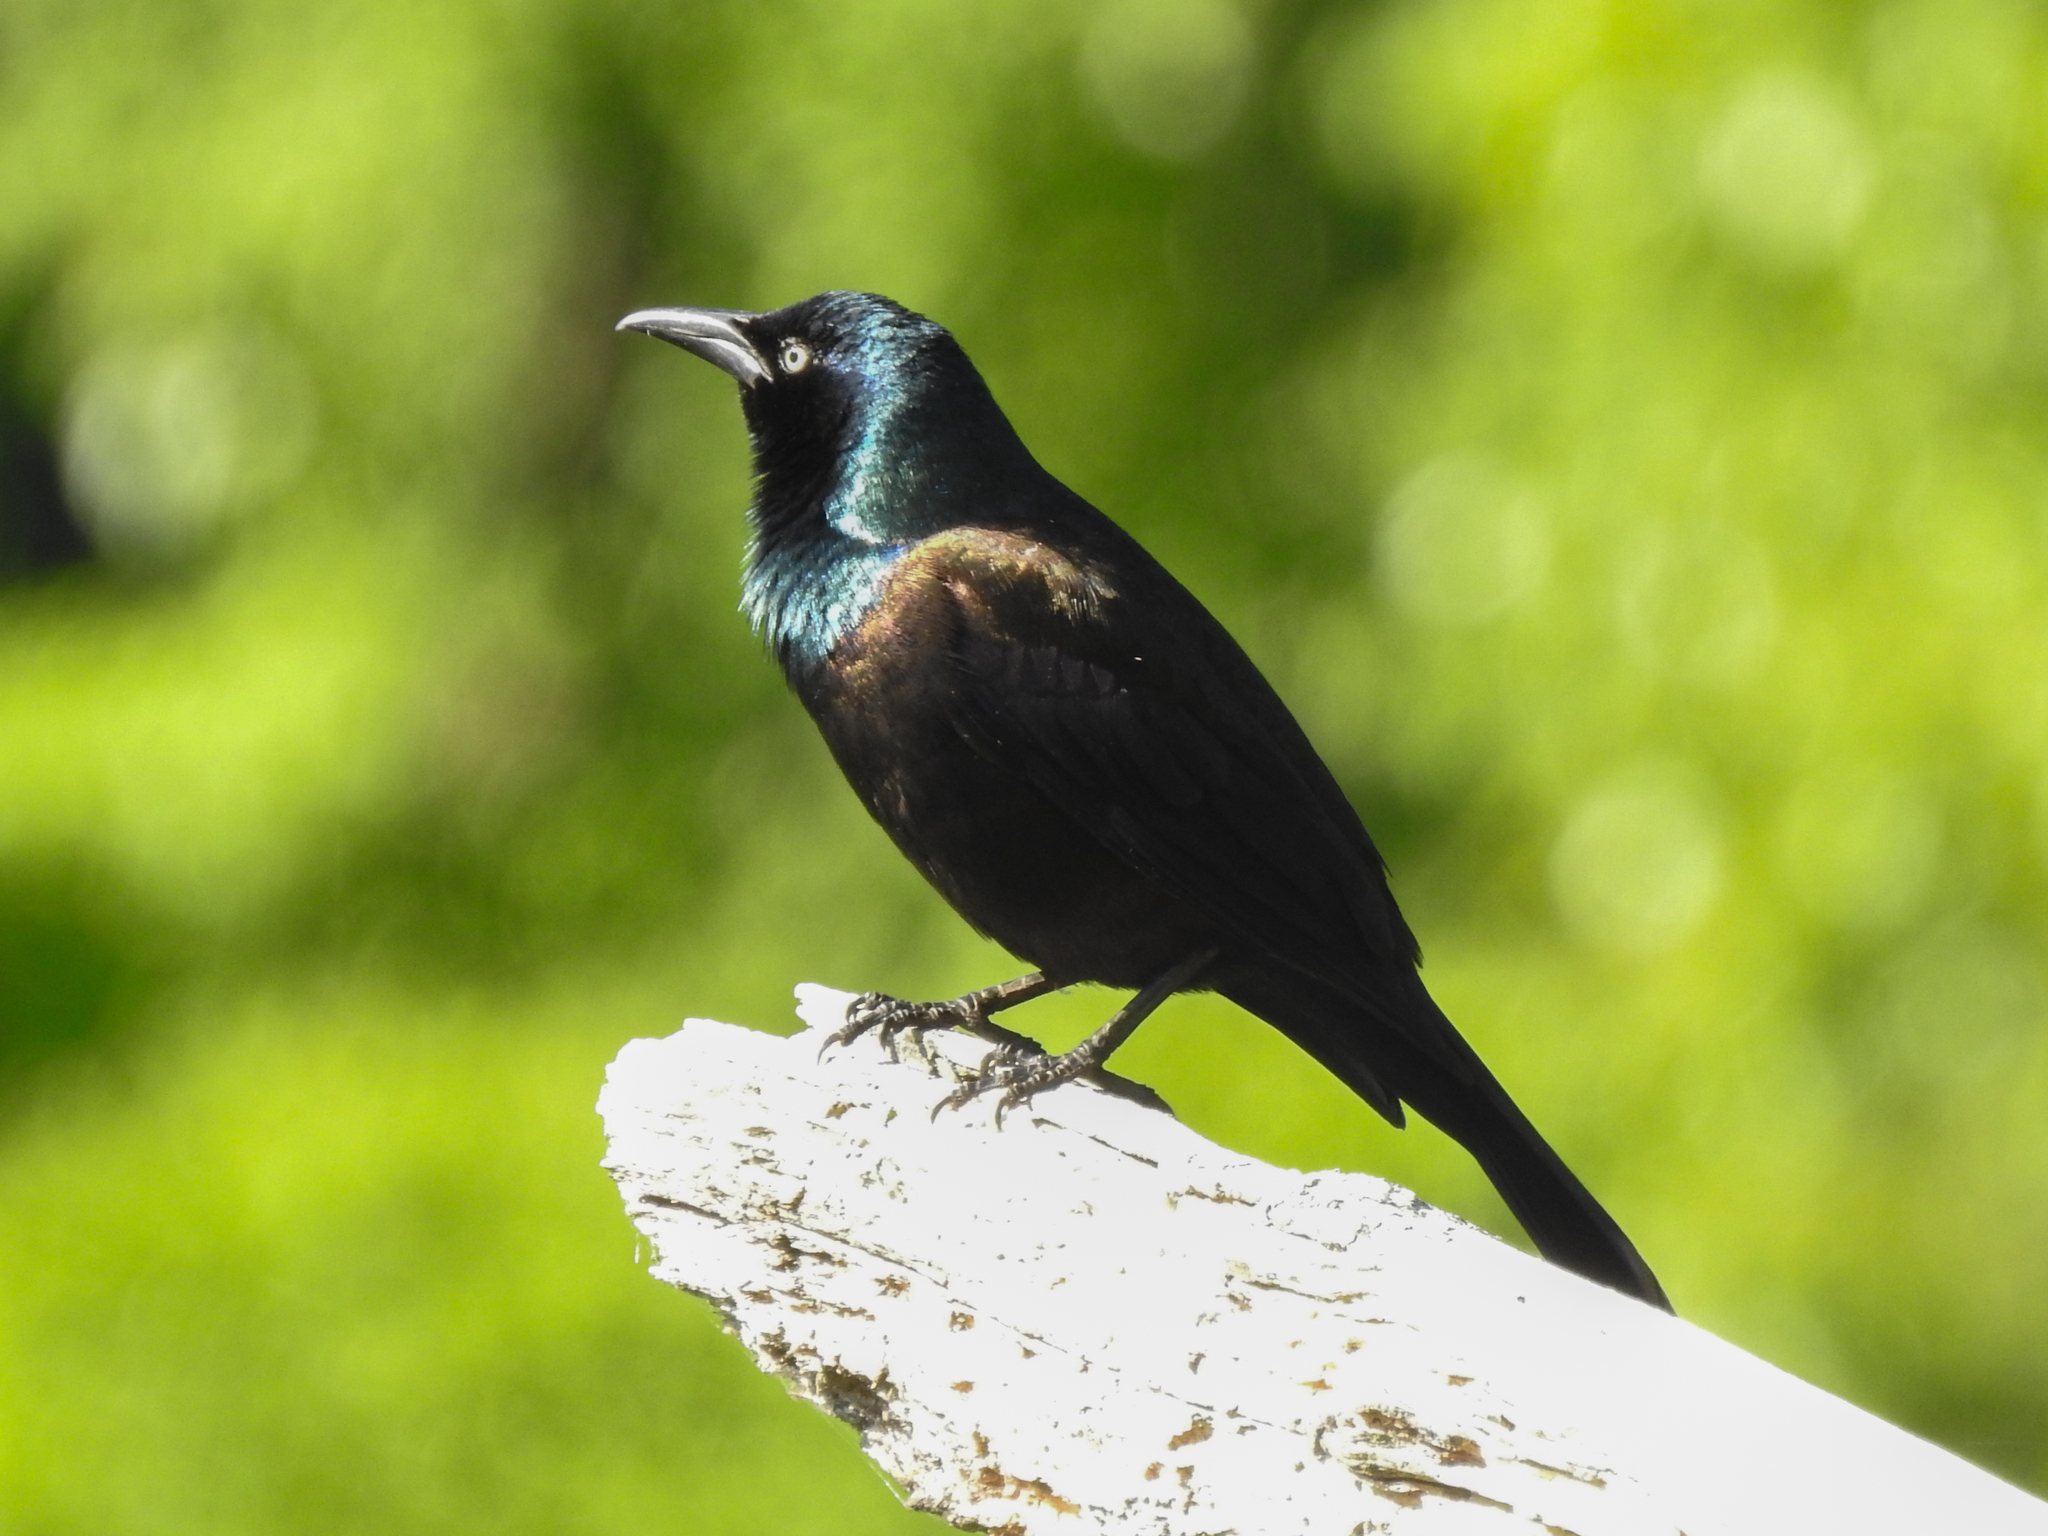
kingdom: Animalia
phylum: Chordata
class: Aves
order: Passeriformes
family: Icteridae
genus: Quiscalus
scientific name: Quiscalus quiscula
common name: Common grackle
